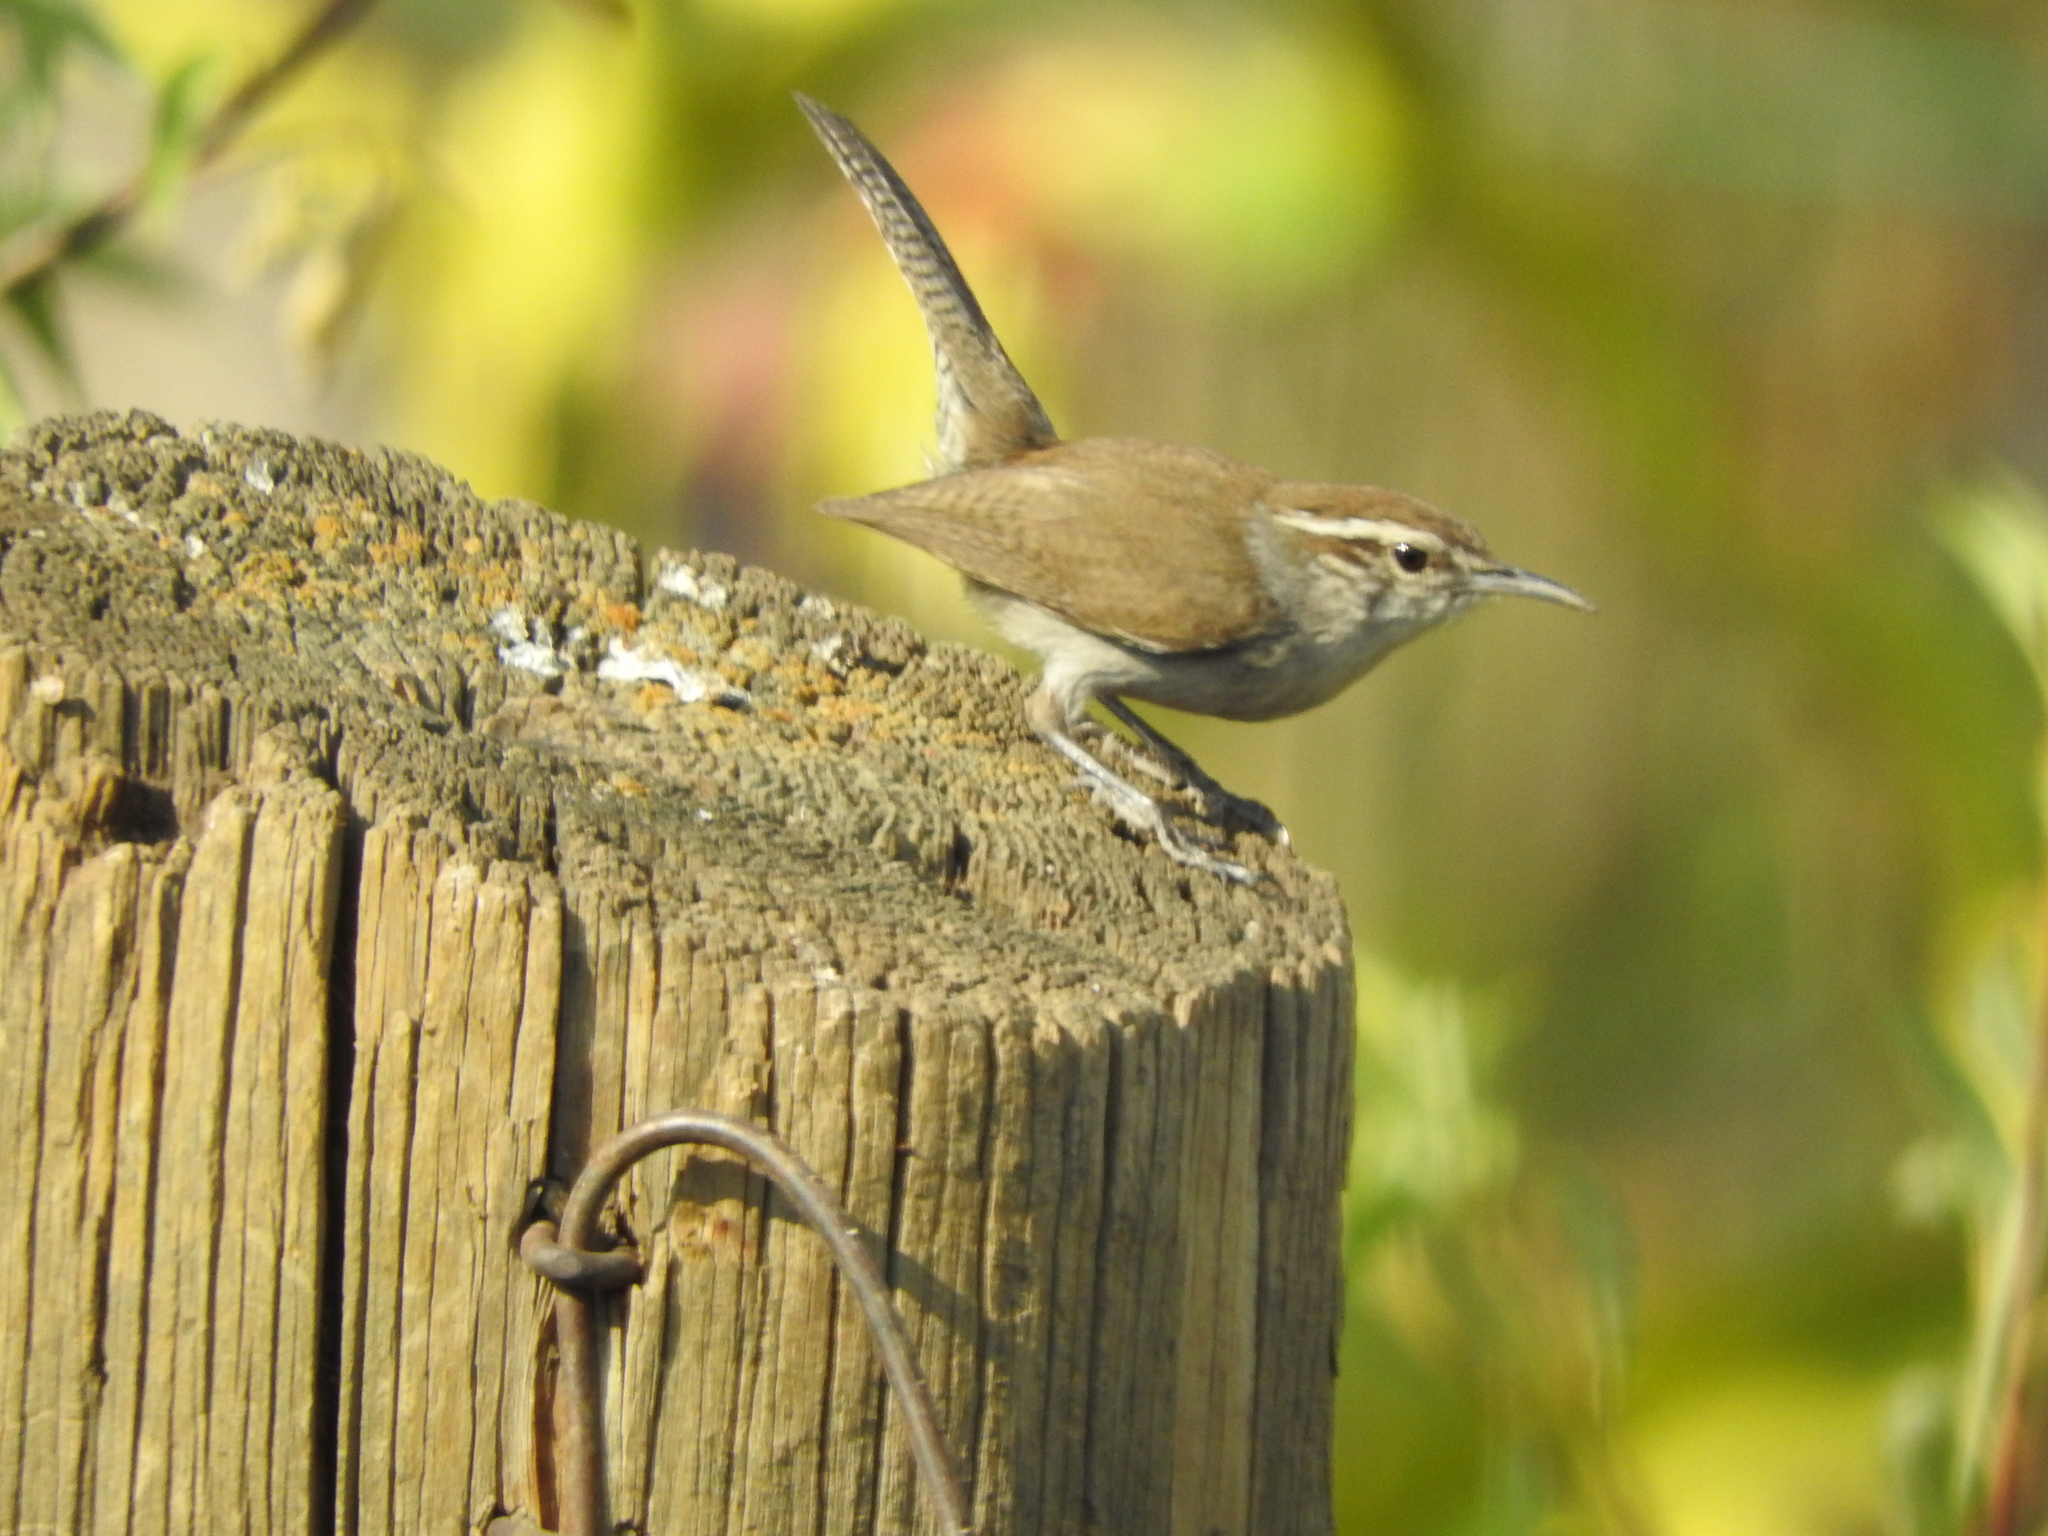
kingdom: Animalia
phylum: Chordata
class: Aves
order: Passeriformes
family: Troglodytidae
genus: Thryomanes
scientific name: Thryomanes bewickii
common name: Bewick's wren
